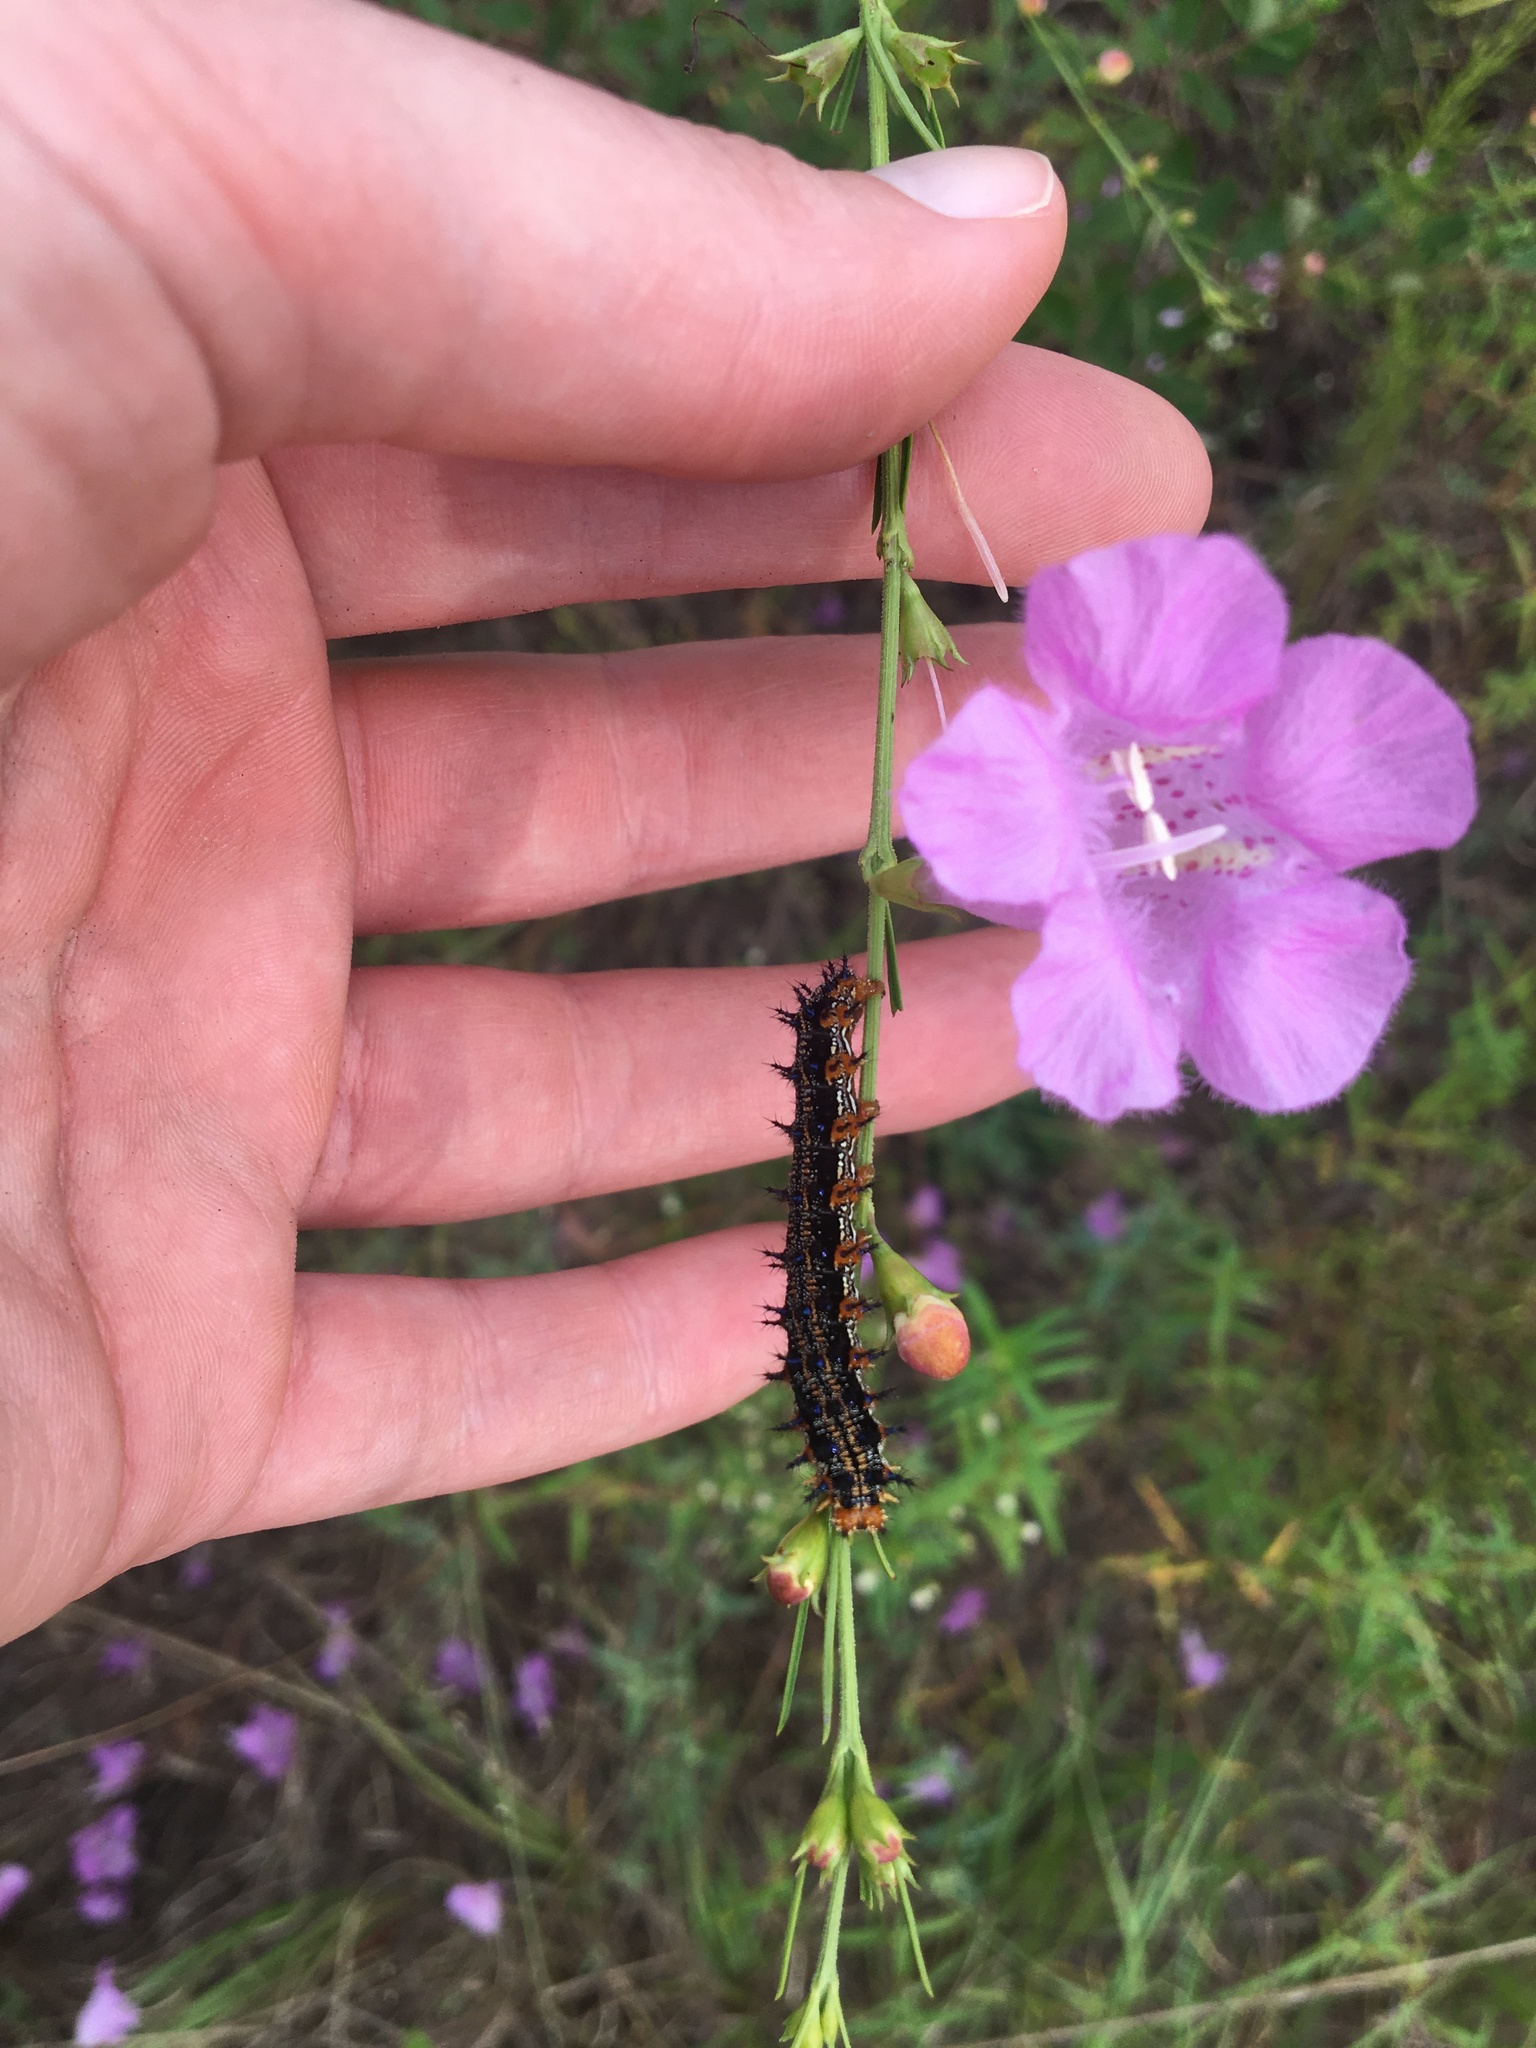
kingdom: Animalia
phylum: Arthropoda
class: Insecta
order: Lepidoptera
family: Nymphalidae
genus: Junonia
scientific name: Junonia coenia
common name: Common buckeye
